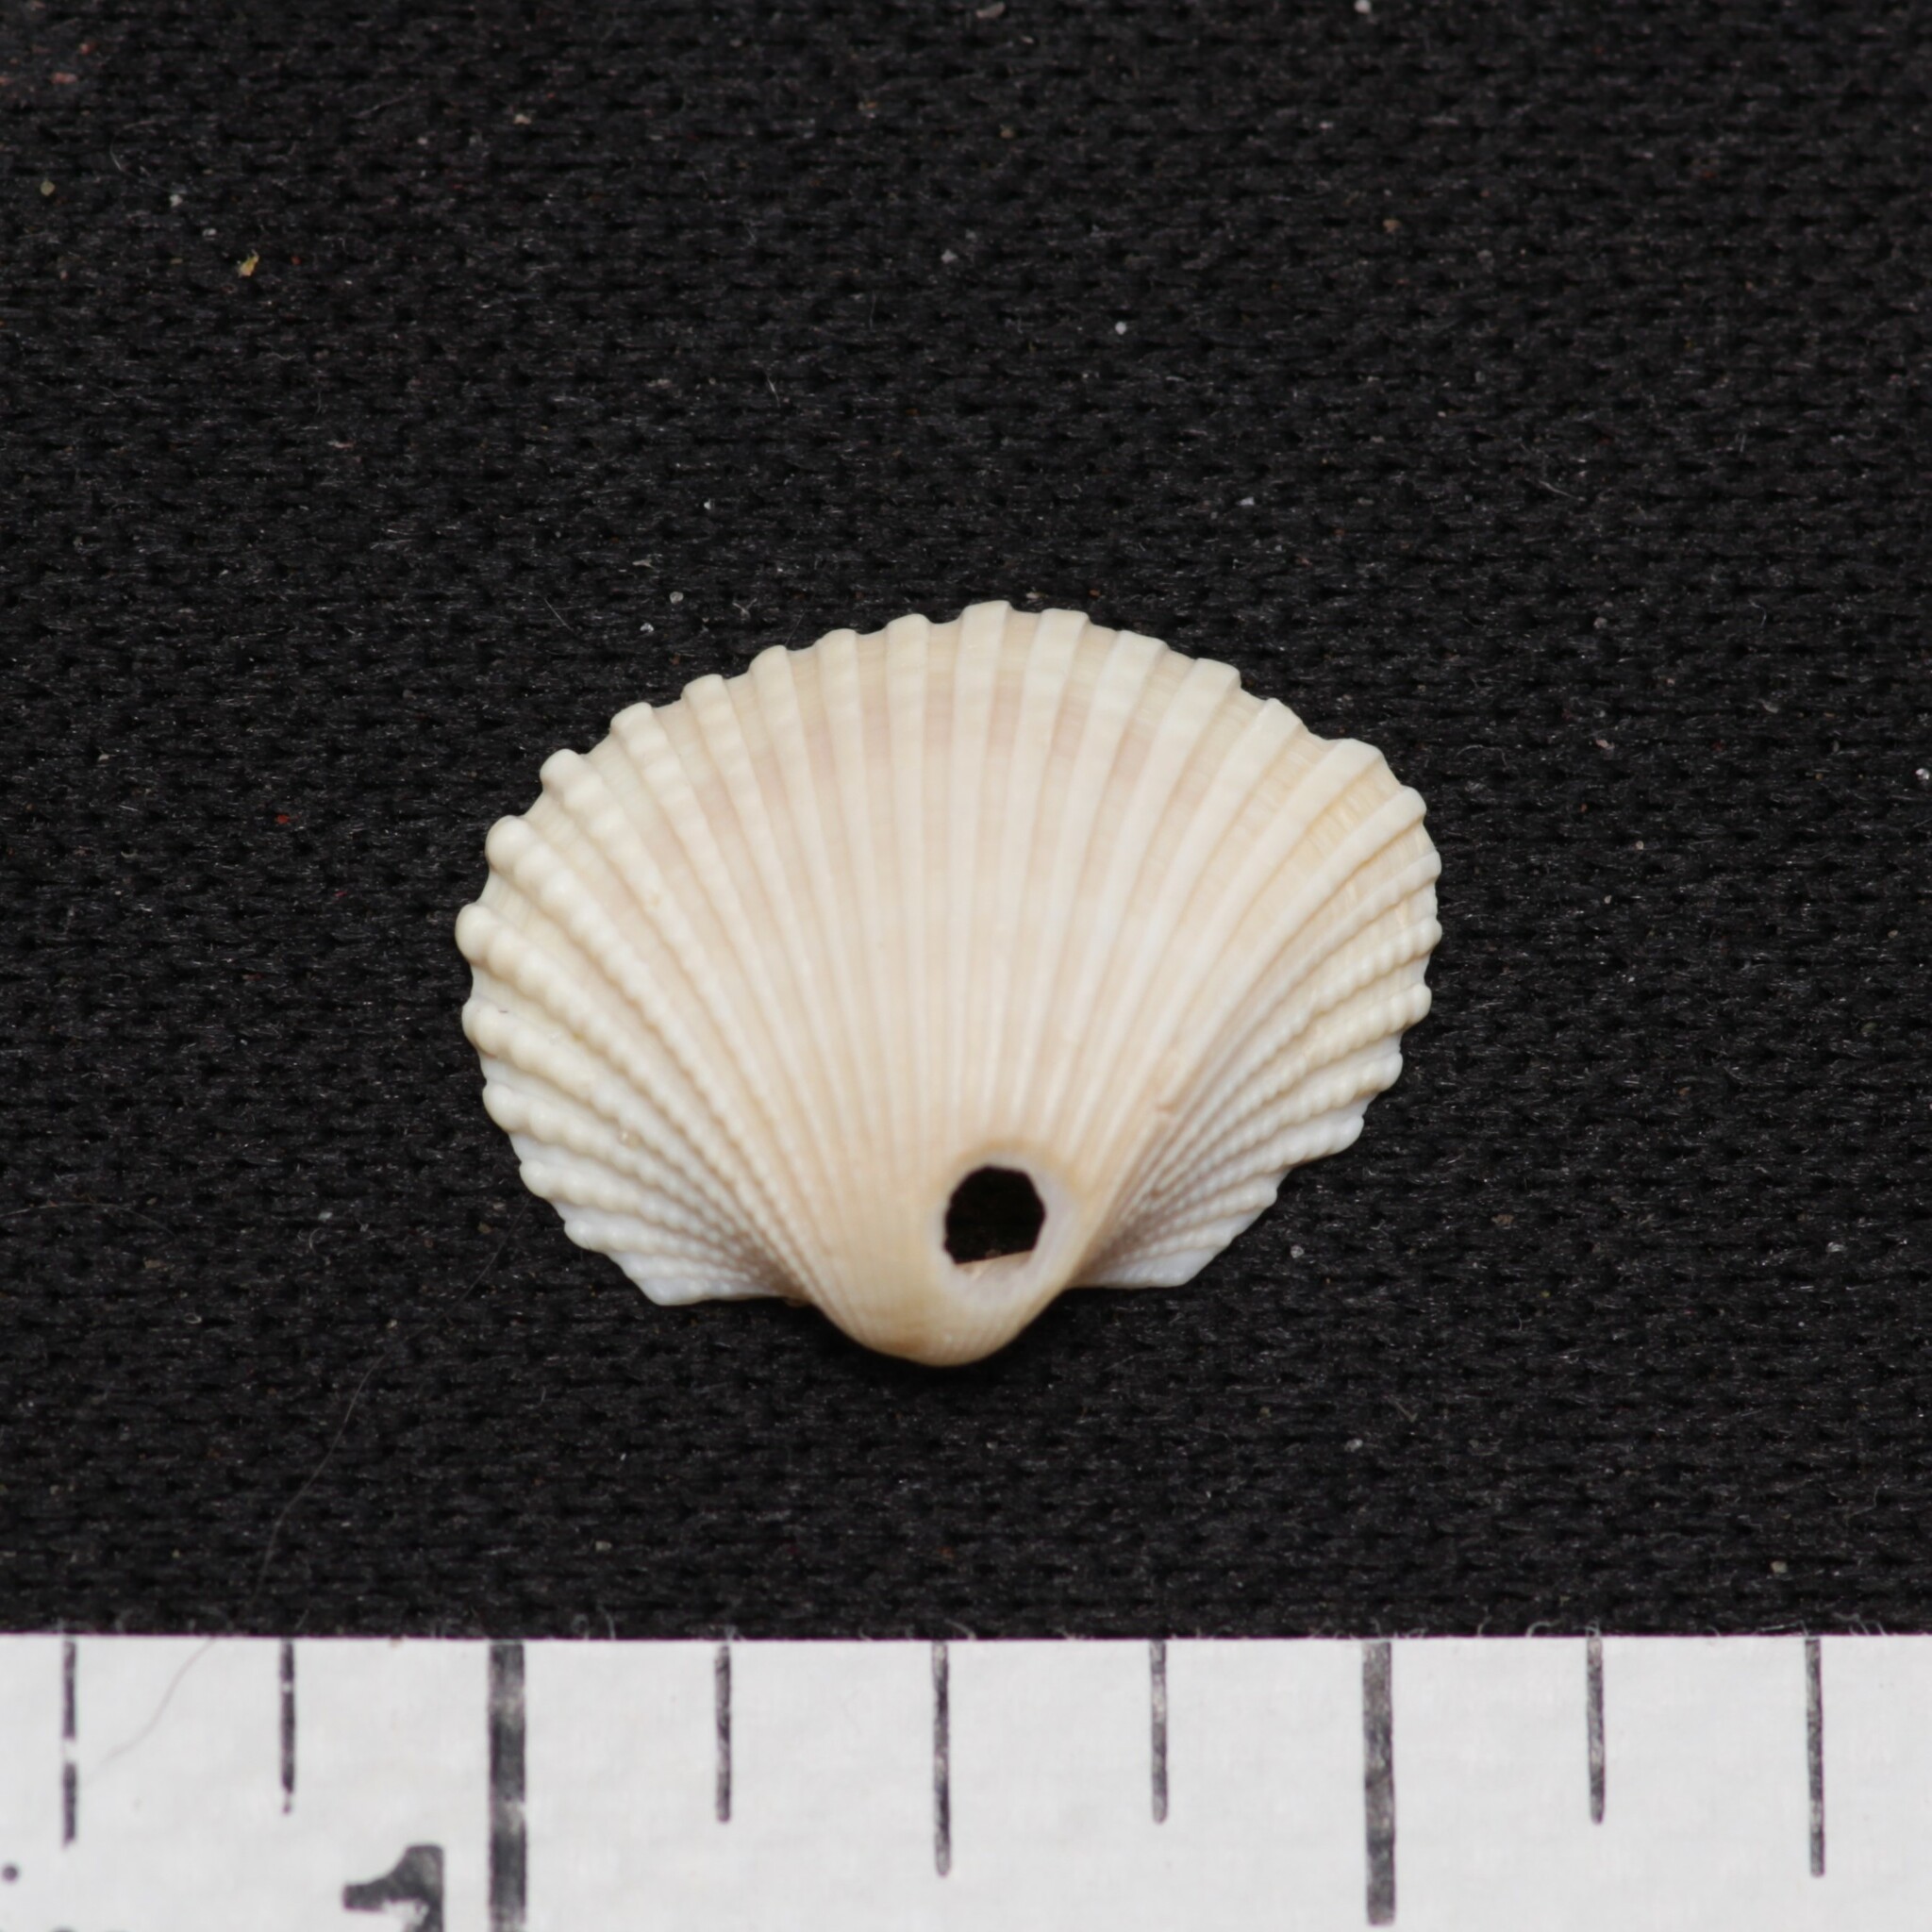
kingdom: Animalia
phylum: Mollusca
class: Bivalvia
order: Arcida
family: Arcidae
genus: Anadara
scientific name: Anadara brasiliana
